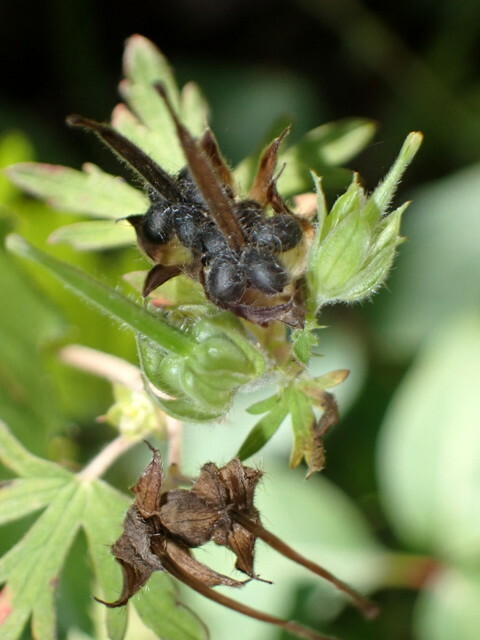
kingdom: Plantae
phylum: Tracheophyta
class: Magnoliopsida
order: Geraniales
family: Geraniaceae
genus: Geranium
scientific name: Geranium carolinianum
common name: Carolina crane's-bill
